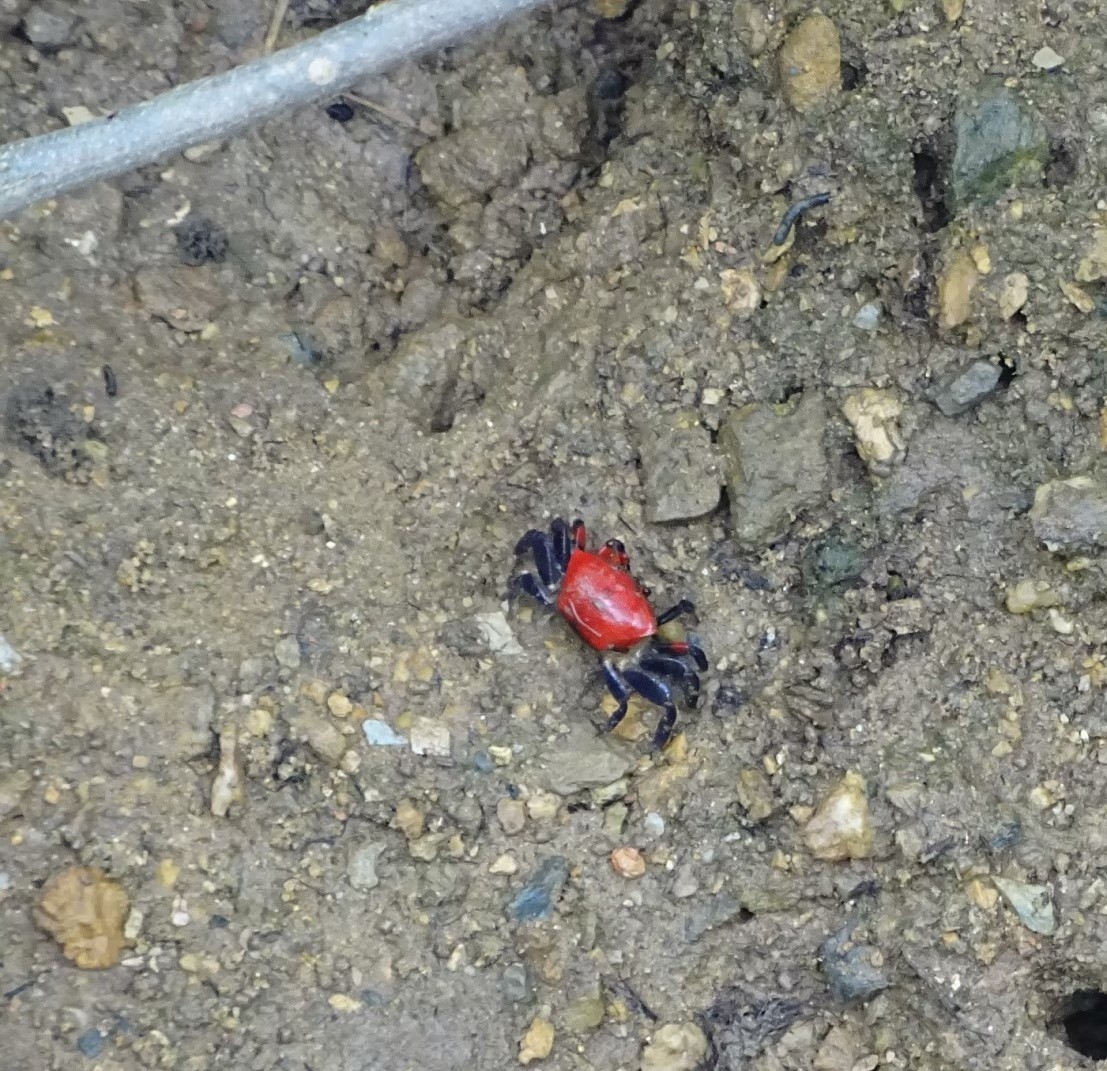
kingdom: Animalia
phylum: Arthropoda
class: Malacostraca
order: Decapoda
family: Ocypodidae
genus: Paraleptuca
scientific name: Paraleptuca crassipes
